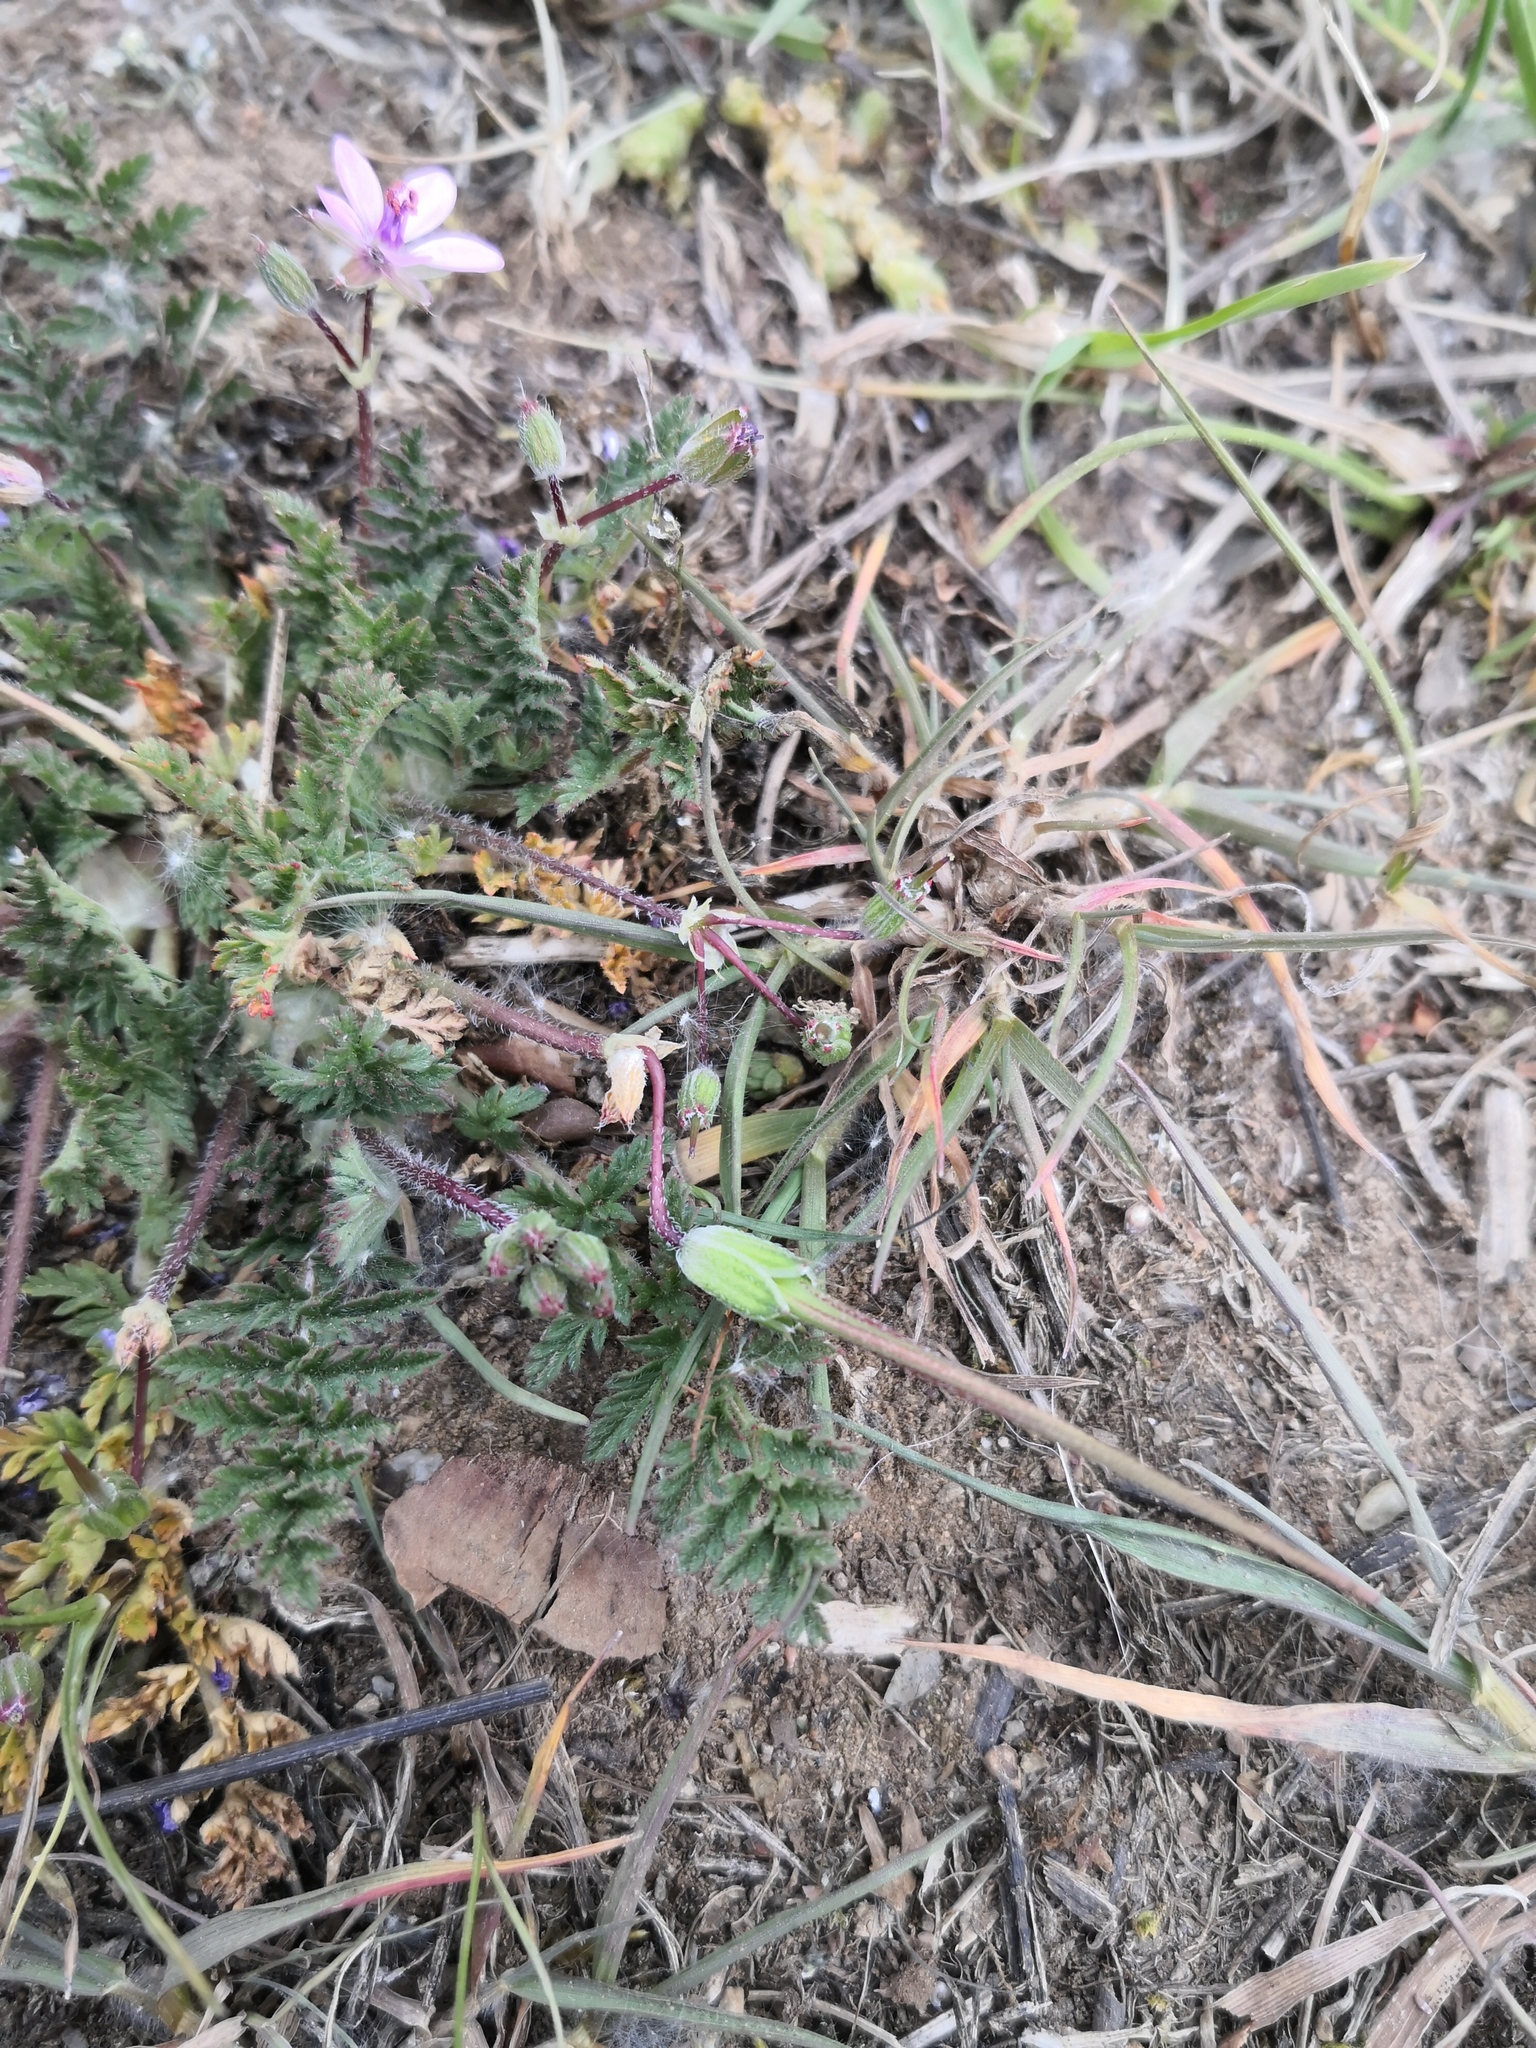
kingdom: Plantae
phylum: Tracheophyta
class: Magnoliopsida
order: Geraniales
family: Geraniaceae
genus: Erodium
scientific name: Erodium cicutarium
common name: Common stork's-bill
